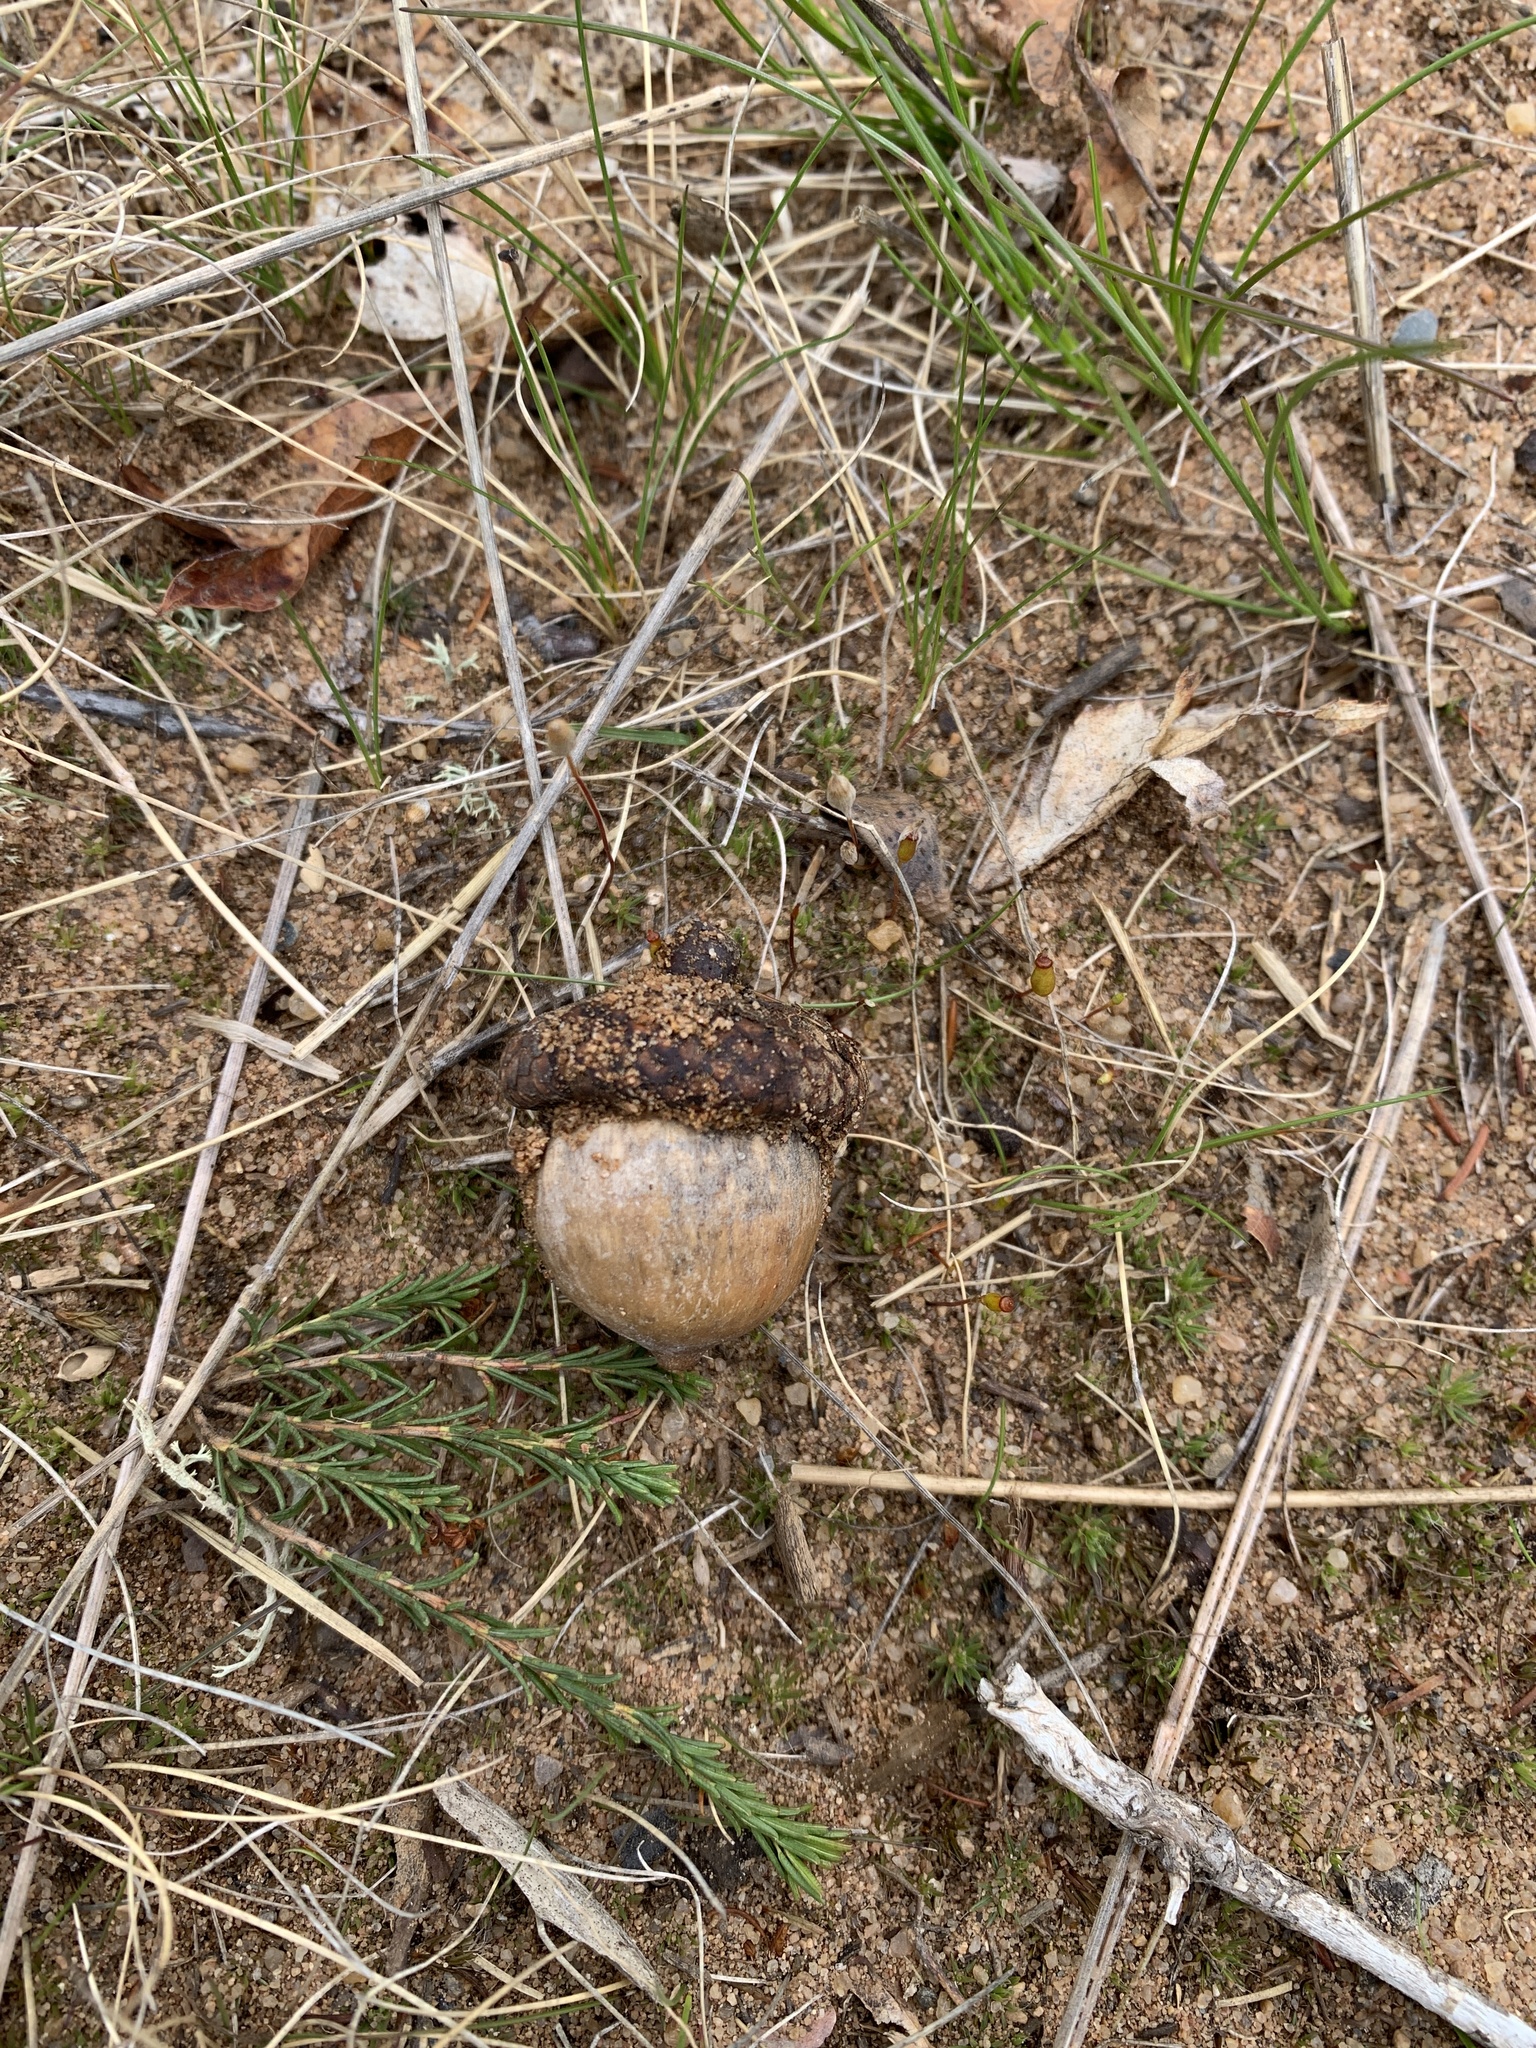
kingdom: Plantae
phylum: Tracheophyta
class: Magnoliopsida
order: Fagales
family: Fagaceae
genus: Quercus
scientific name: Quercus rubra
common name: Red oak
